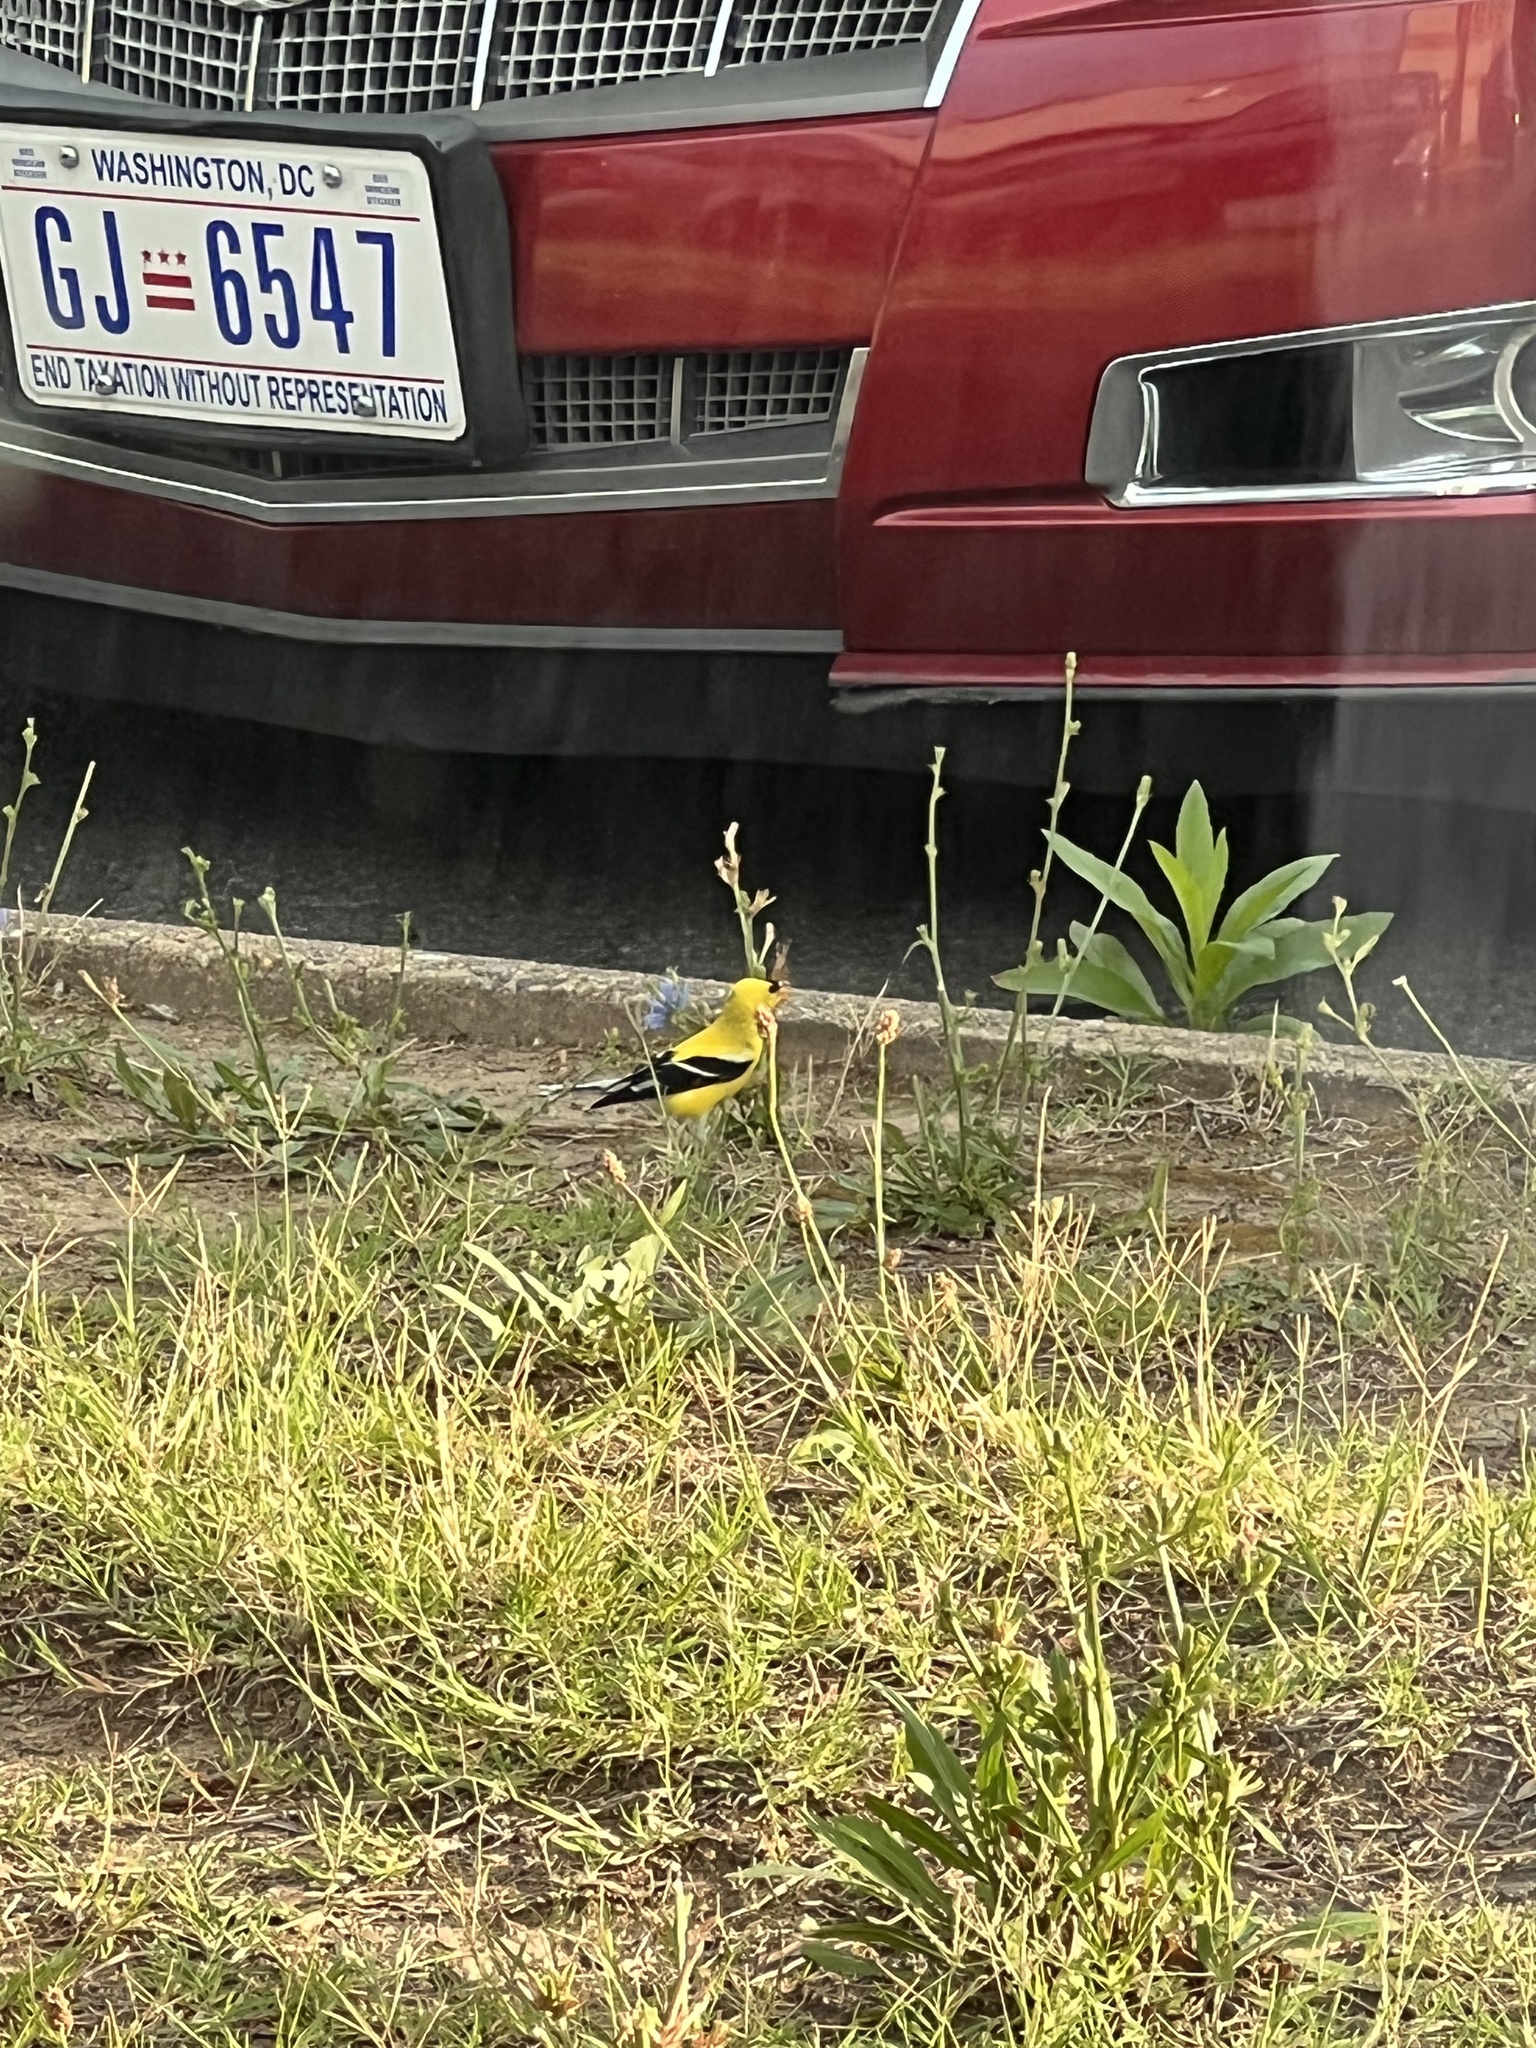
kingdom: Animalia
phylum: Chordata
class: Aves
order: Passeriformes
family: Fringillidae
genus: Spinus
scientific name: Spinus tristis
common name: American goldfinch
